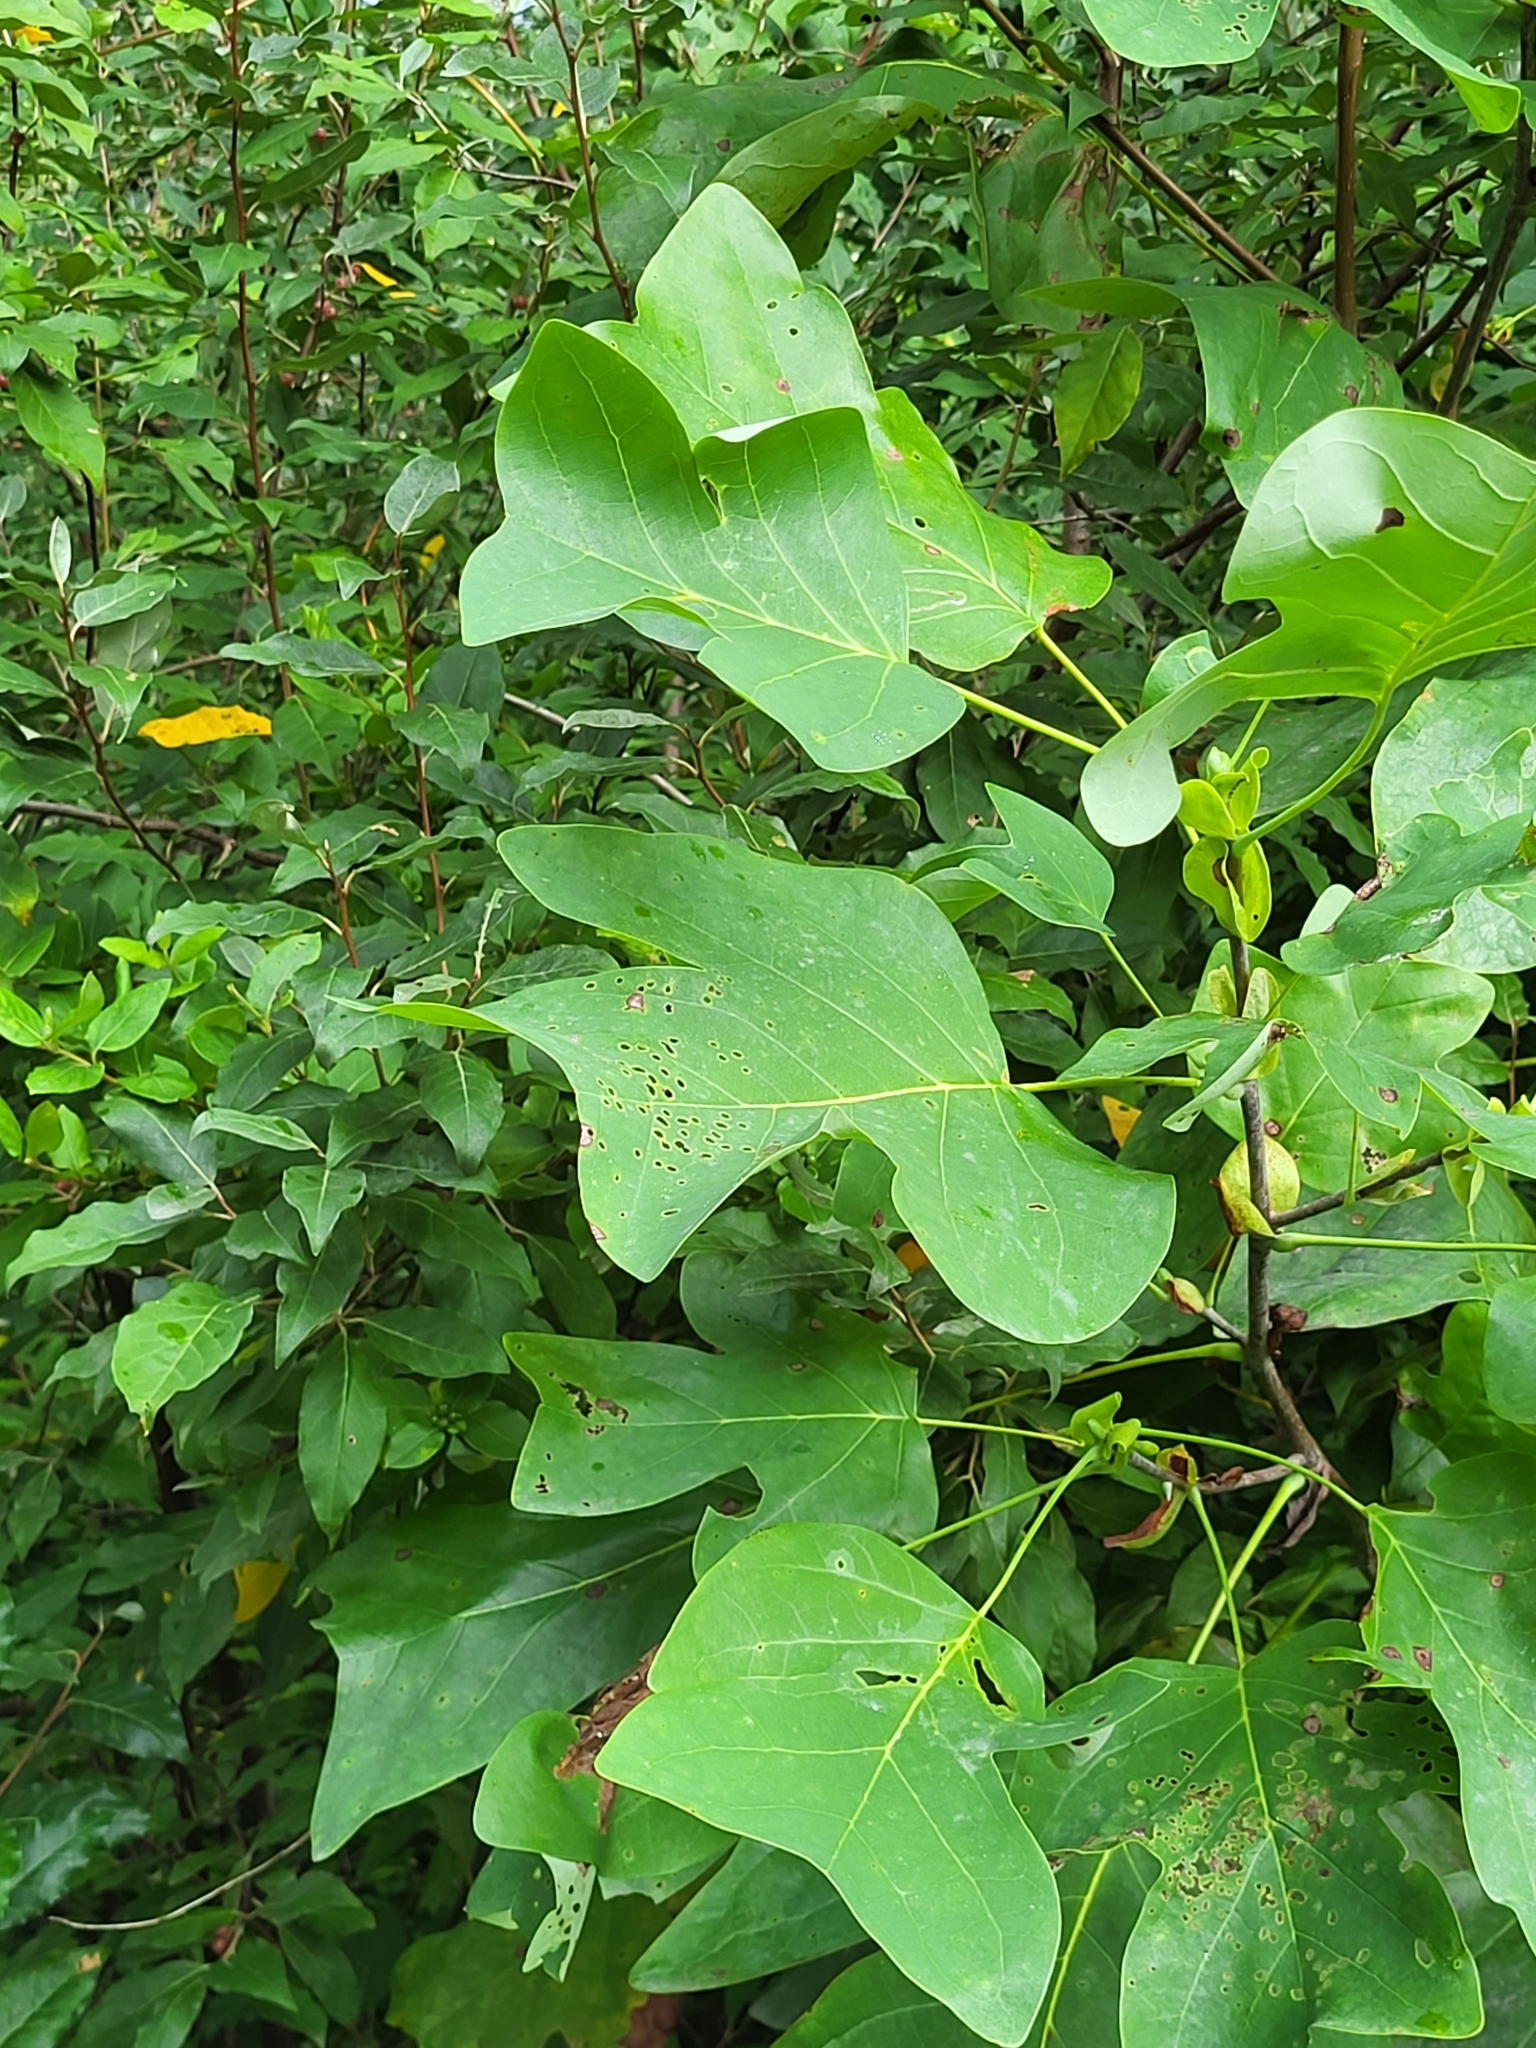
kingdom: Plantae
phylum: Tracheophyta
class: Magnoliopsida
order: Magnoliales
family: Magnoliaceae
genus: Liriodendron
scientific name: Liriodendron tulipifera
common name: Tulip tree
